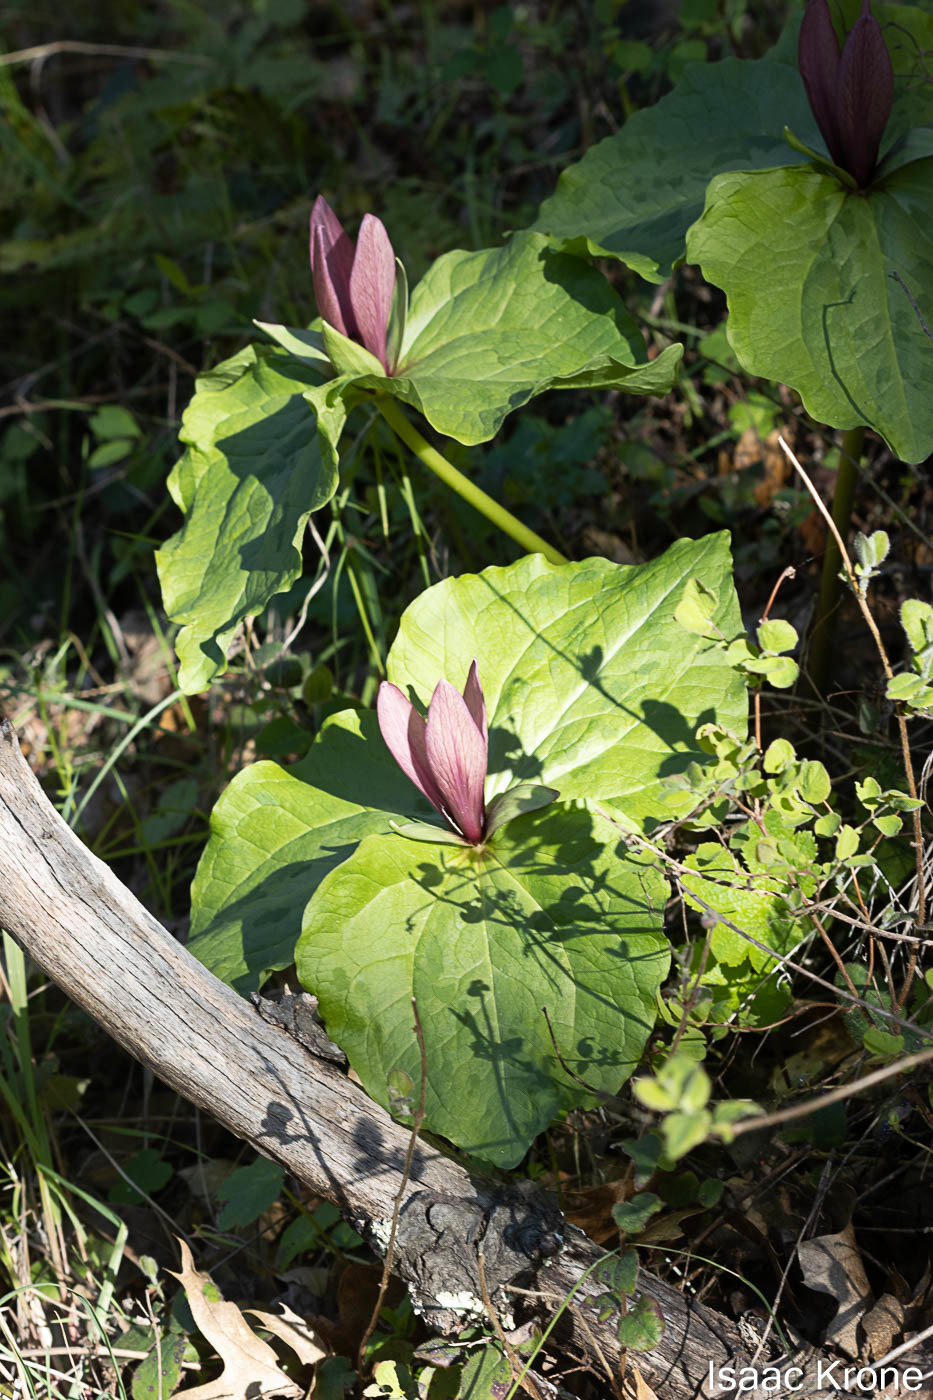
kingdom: Plantae
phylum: Tracheophyta
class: Liliopsida
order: Liliales
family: Melanthiaceae
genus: Trillium
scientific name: Trillium chloropetalum
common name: Giant trillium
